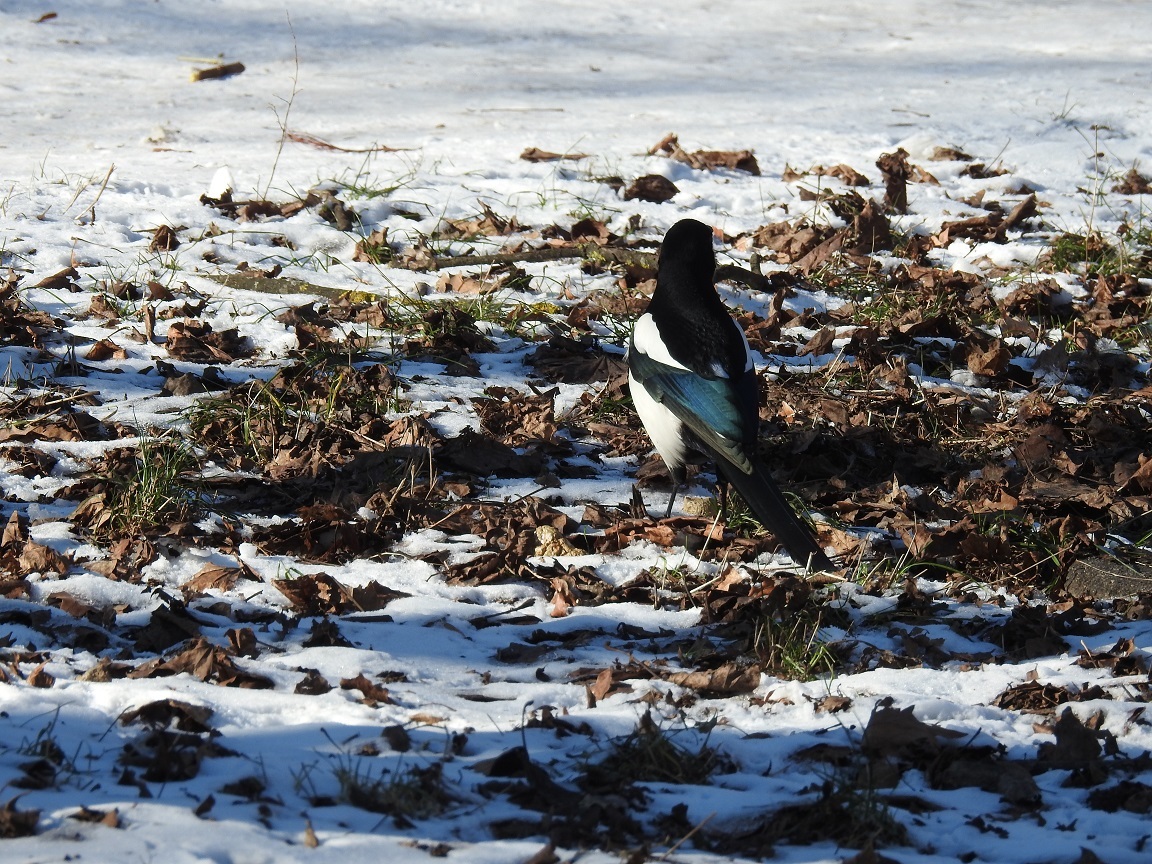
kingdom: Animalia
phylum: Chordata
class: Aves
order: Passeriformes
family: Corvidae
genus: Pica
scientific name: Pica pica
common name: Eurasian magpie
